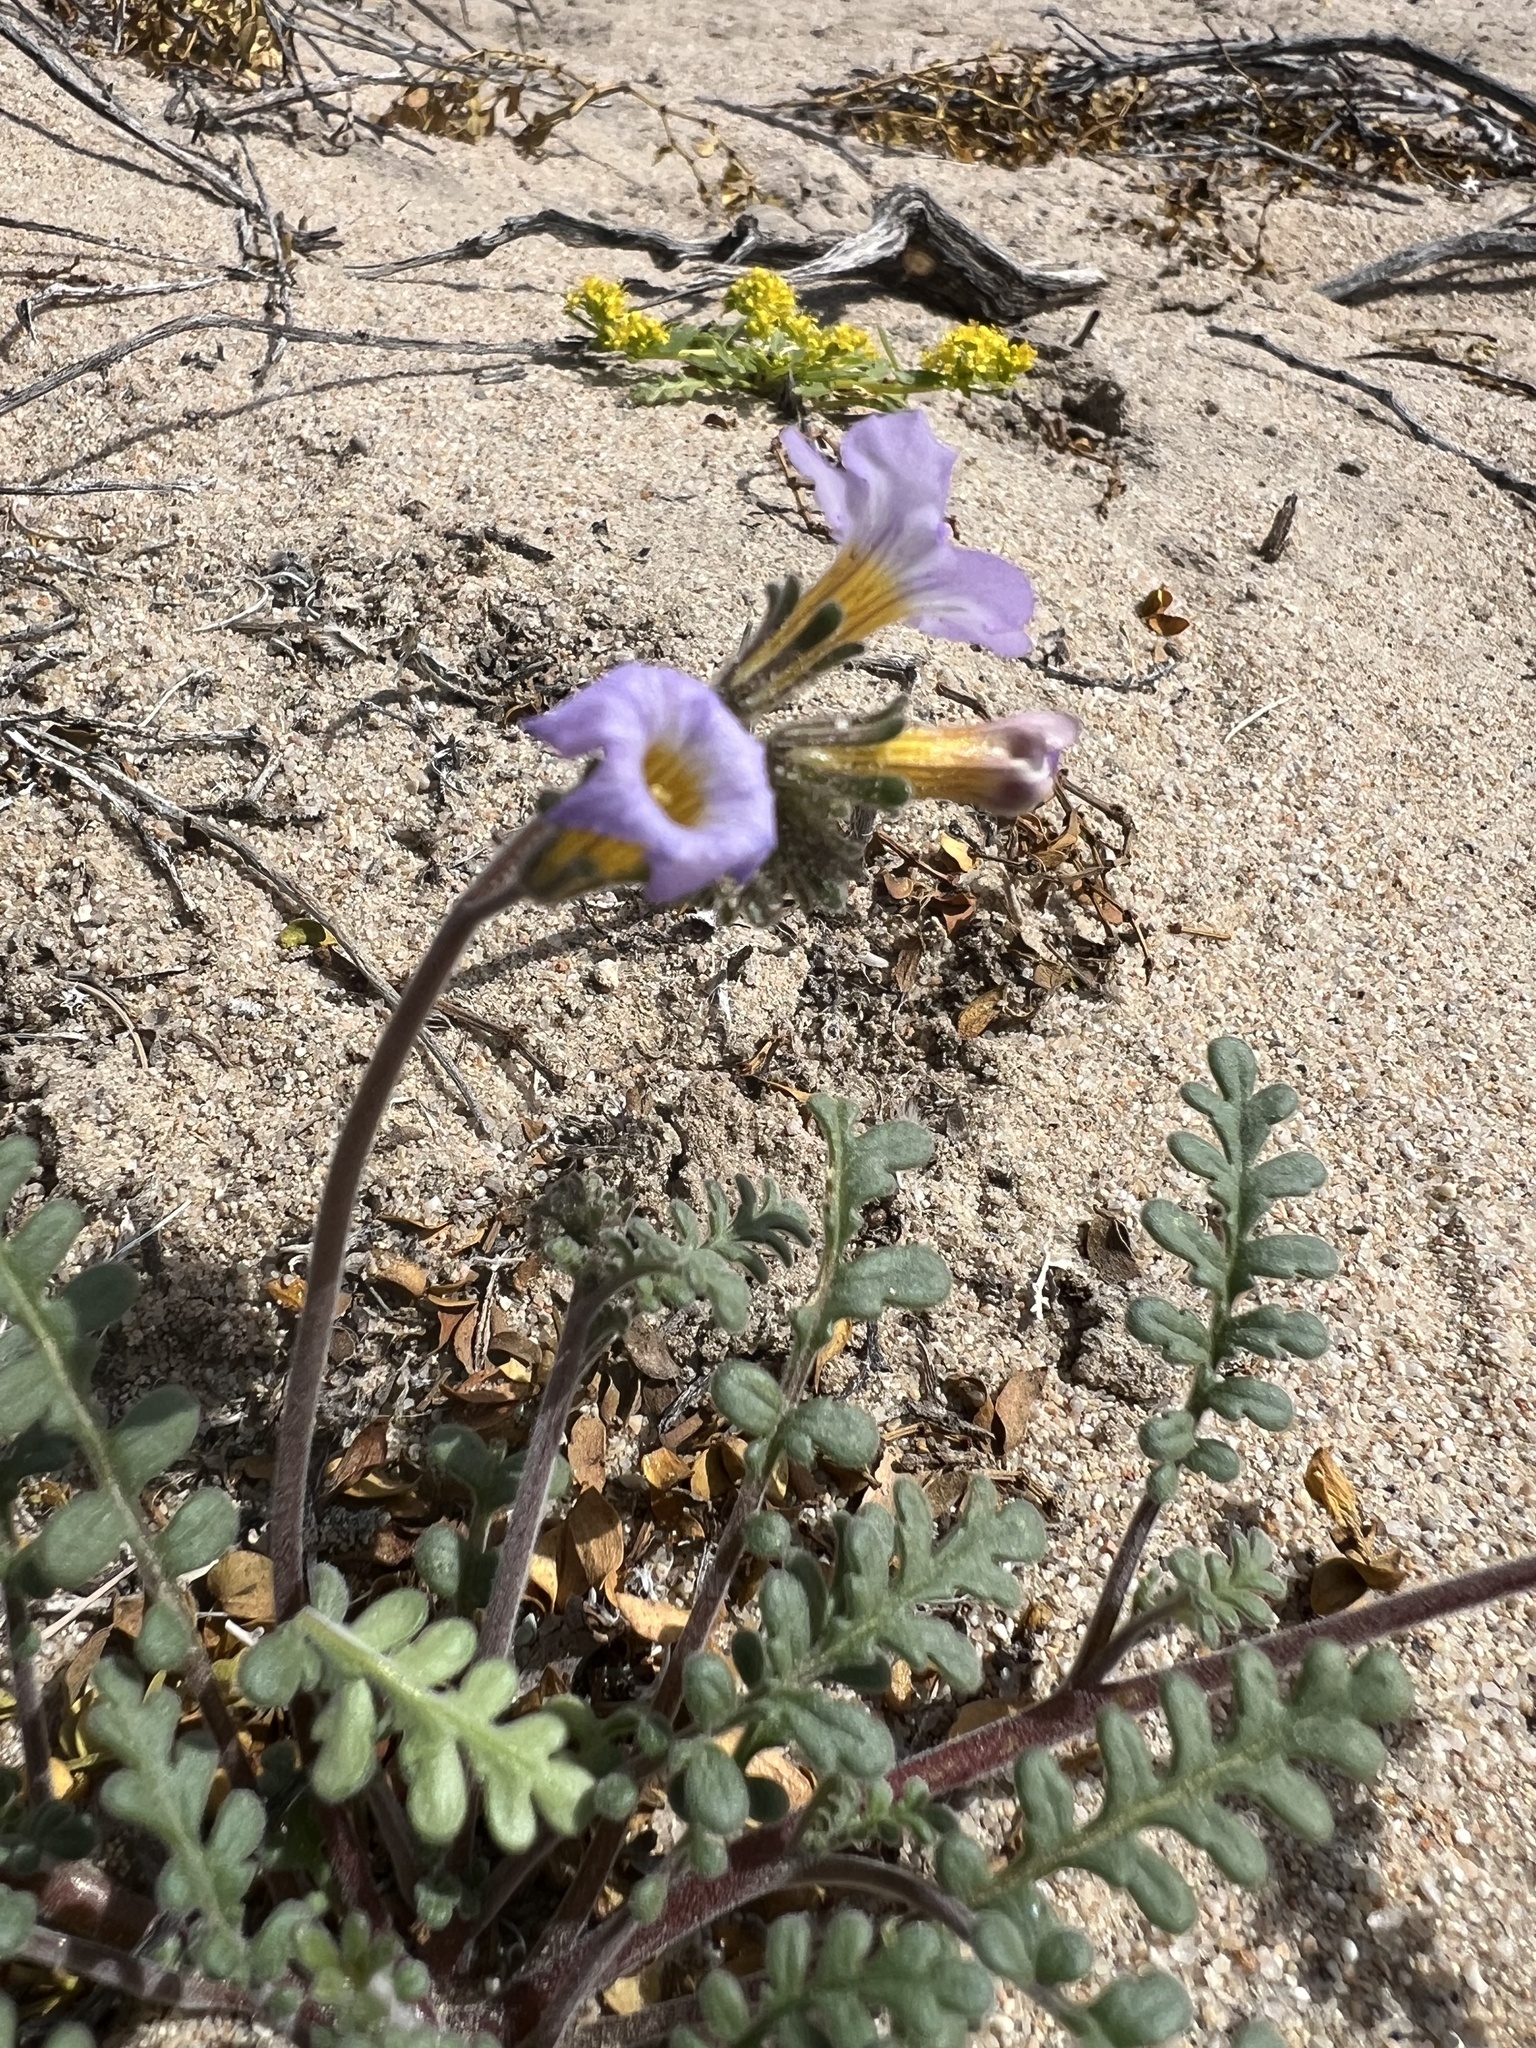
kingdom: Plantae
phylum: Tracheophyta
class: Magnoliopsida
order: Boraginales
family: Hydrophyllaceae
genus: Phacelia
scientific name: Phacelia fremontii
